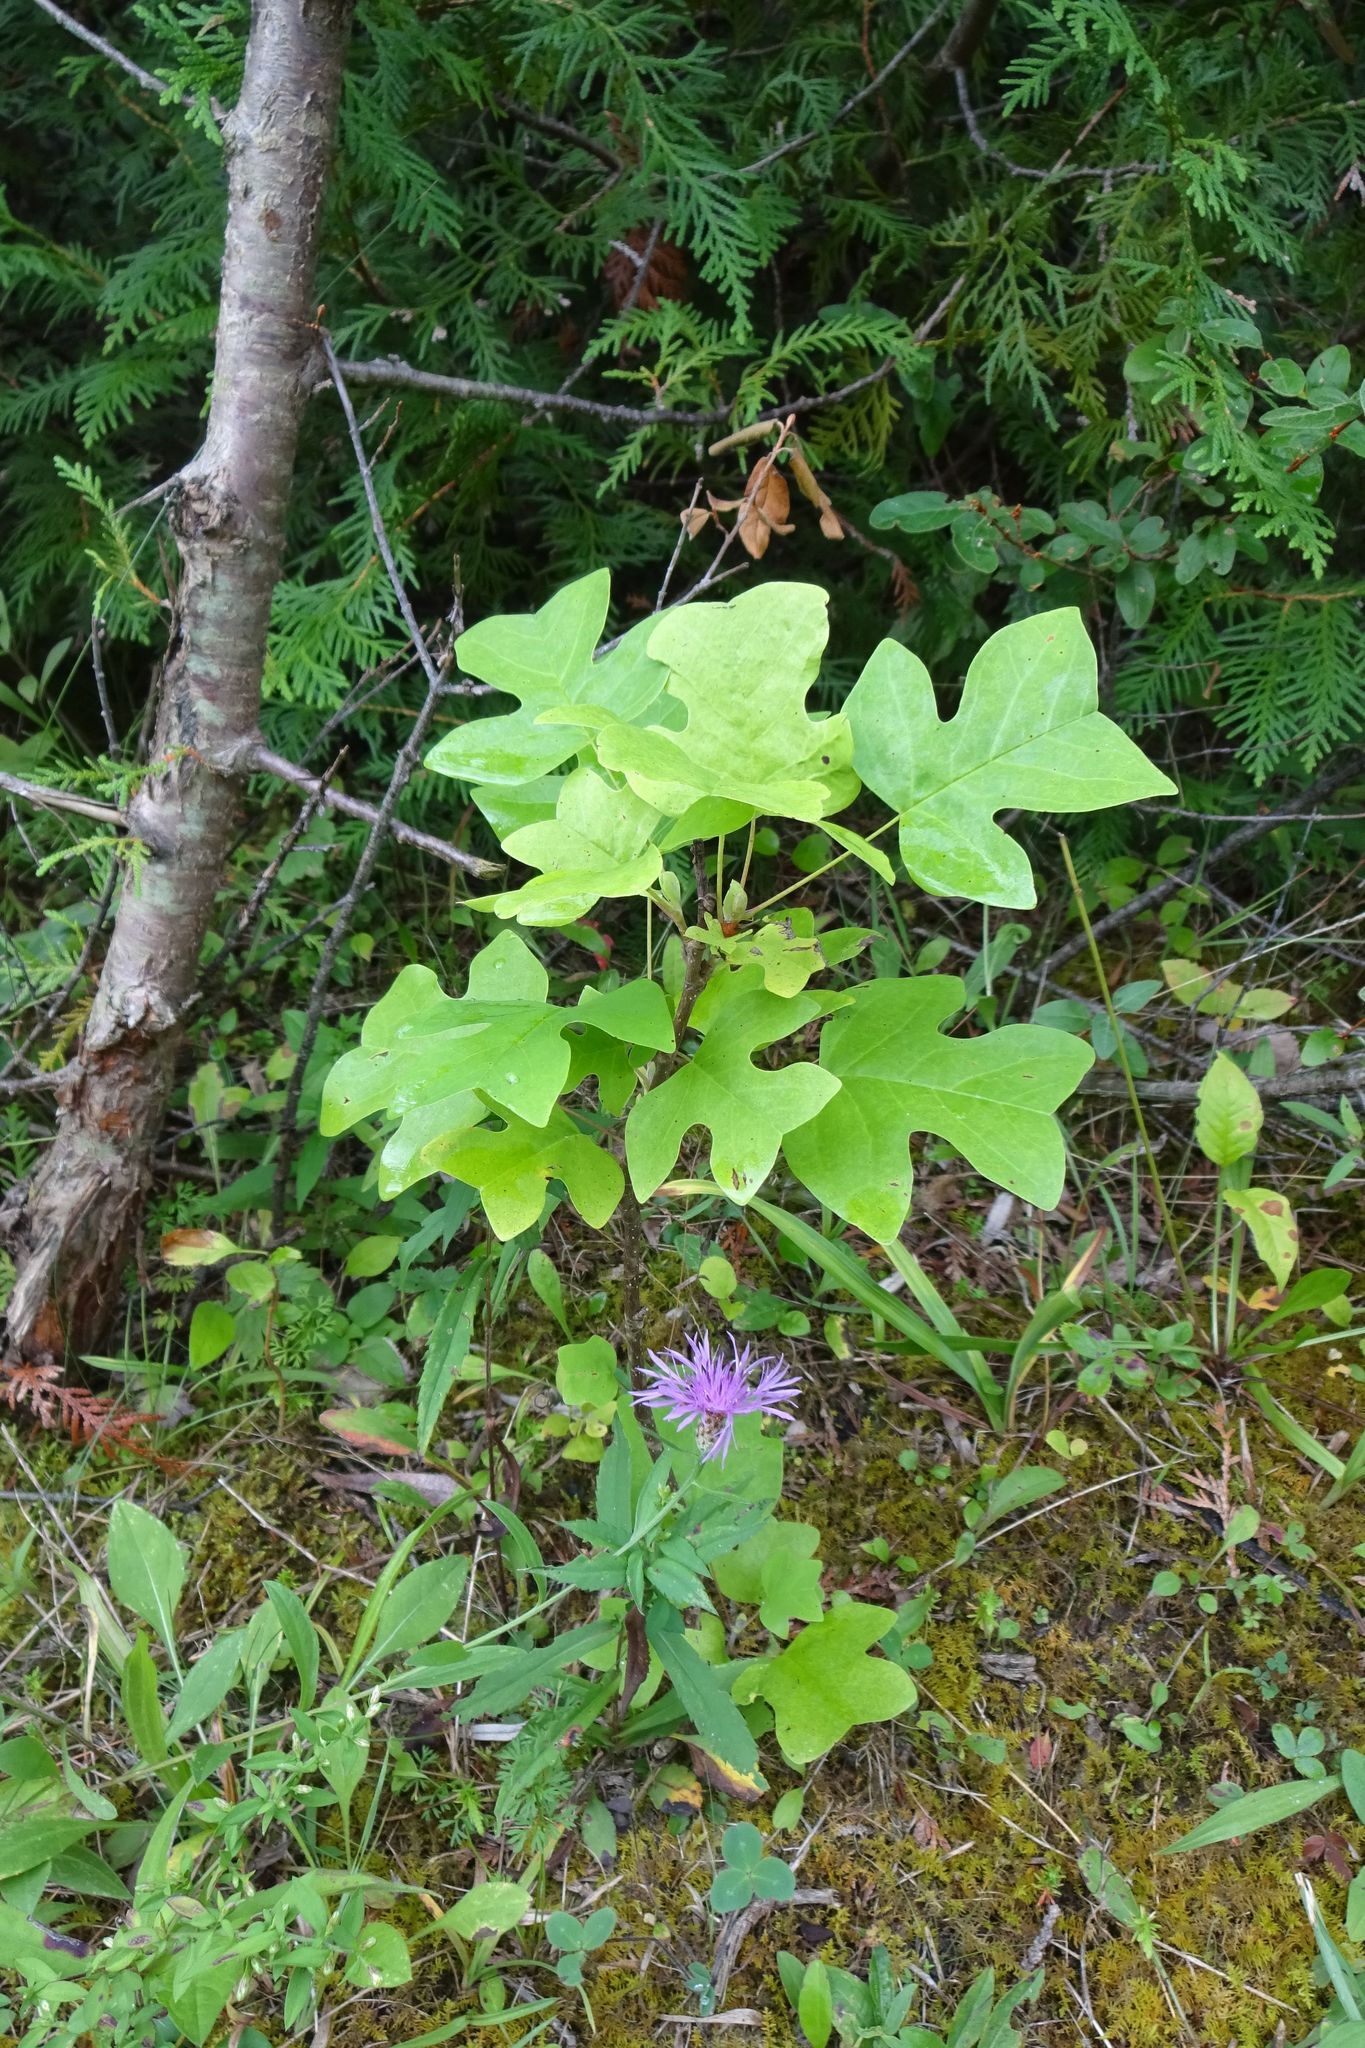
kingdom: Plantae
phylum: Tracheophyta
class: Magnoliopsida
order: Magnoliales
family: Magnoliaceae
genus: Liriodendron
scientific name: Liriodendron tulipifera
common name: Tulip tree
